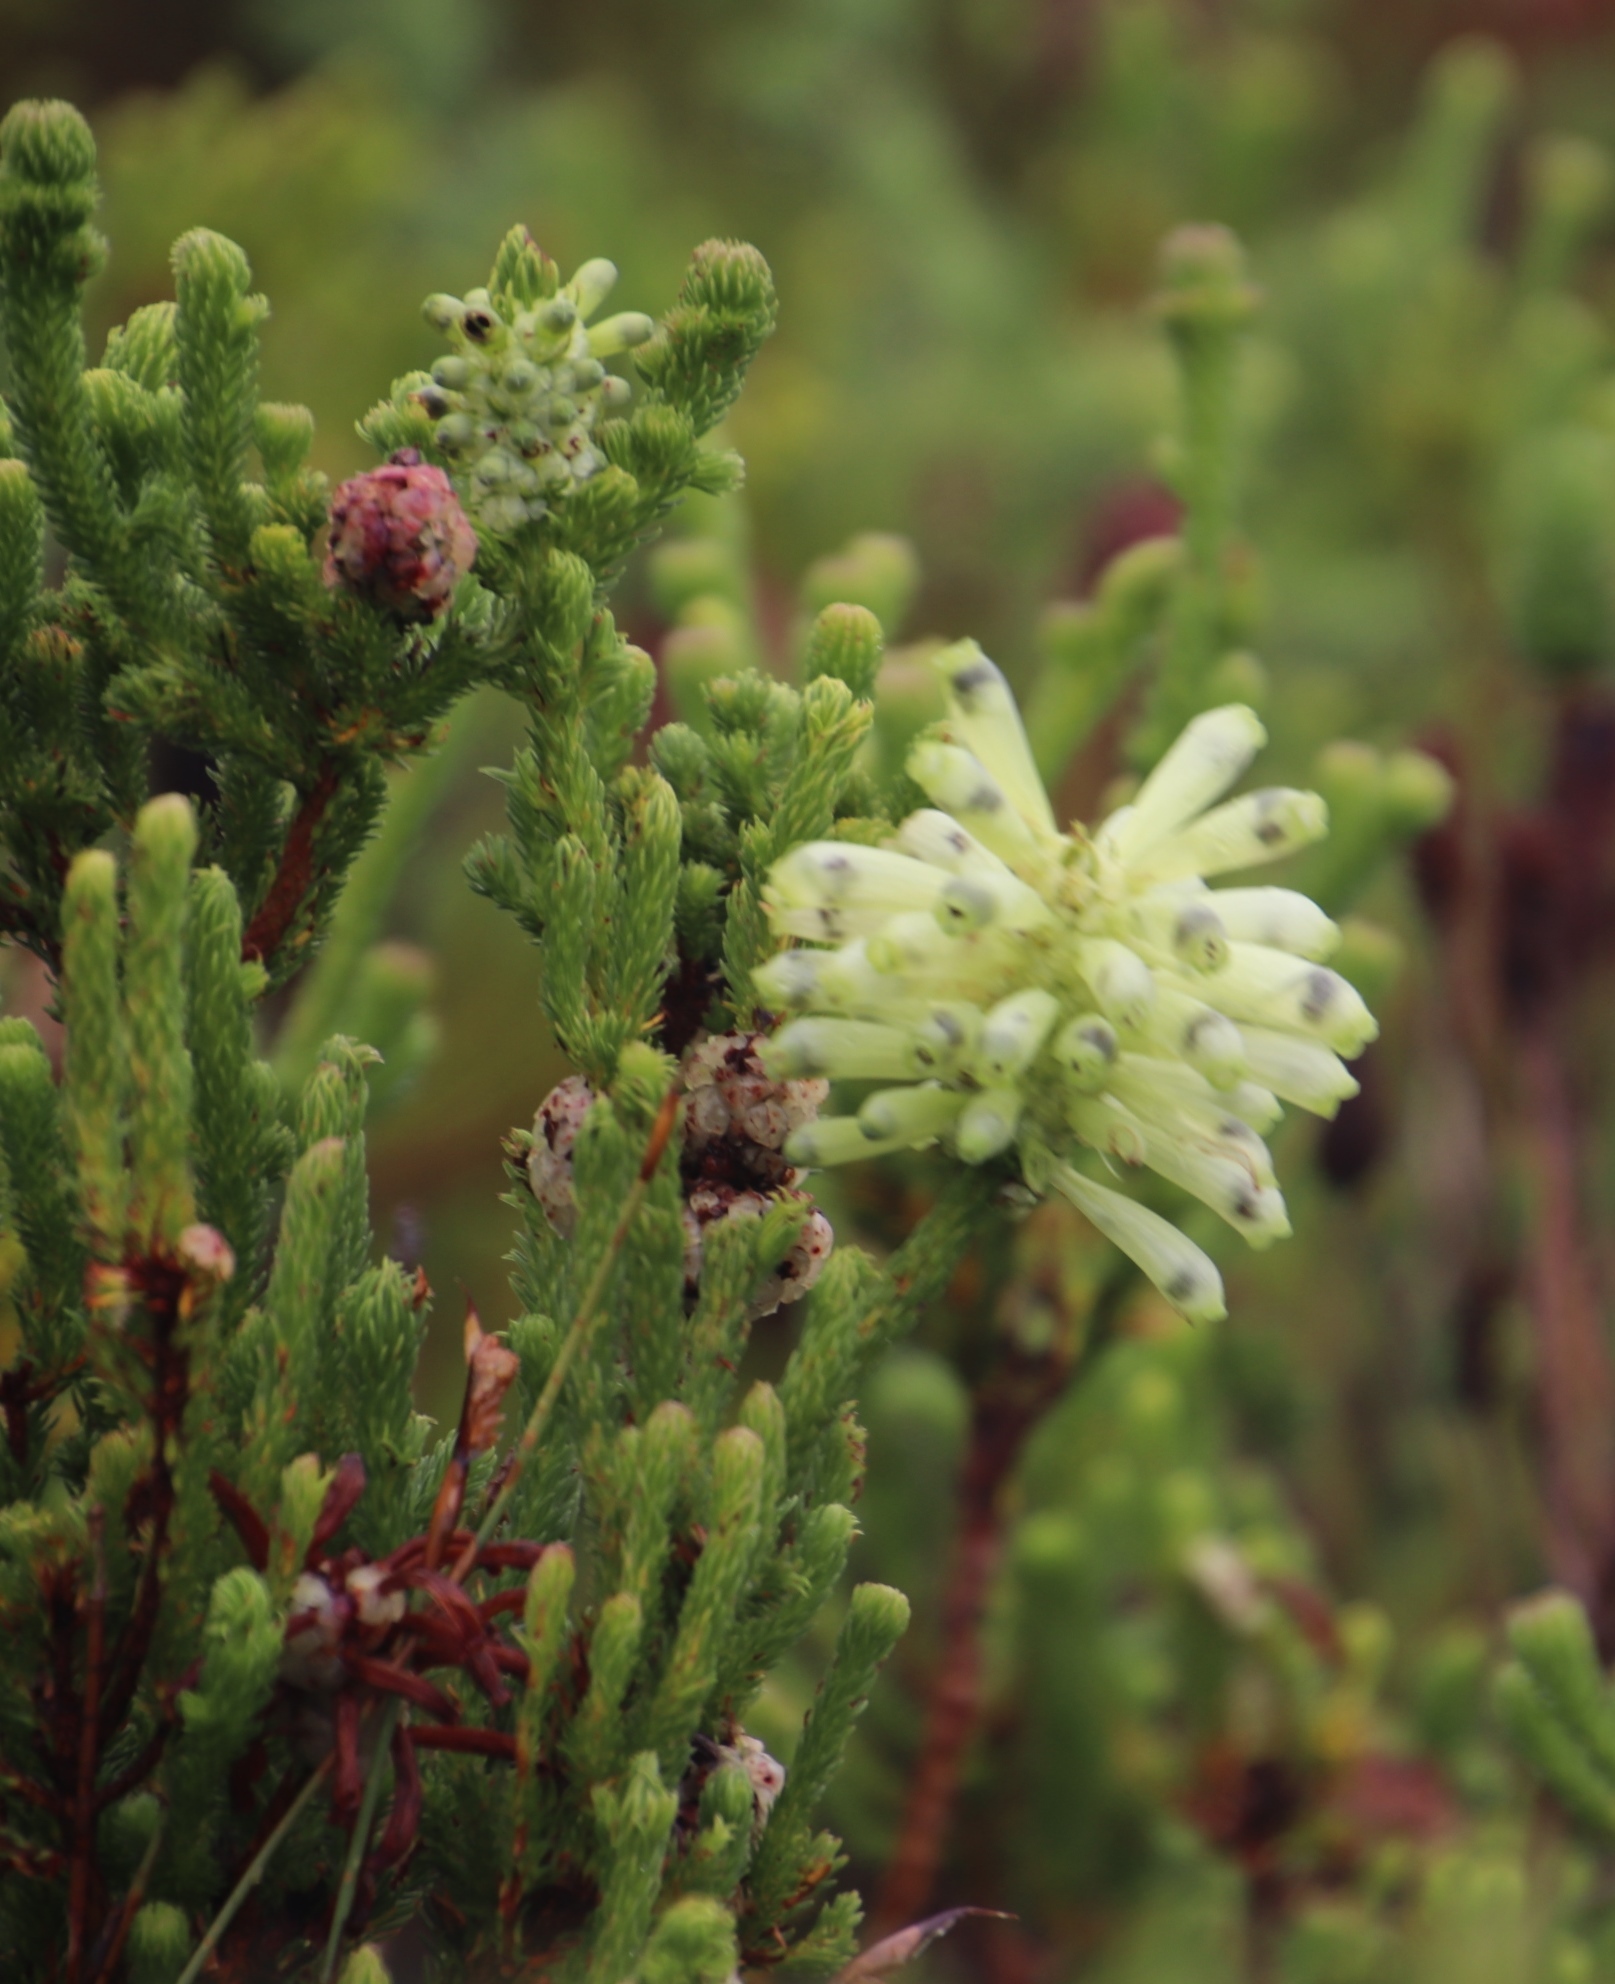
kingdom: Plantae
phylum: Tracheophyta
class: Magnoliopsida
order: Ericales
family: Ericaceae
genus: Erica
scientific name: Erica sessiliflora
